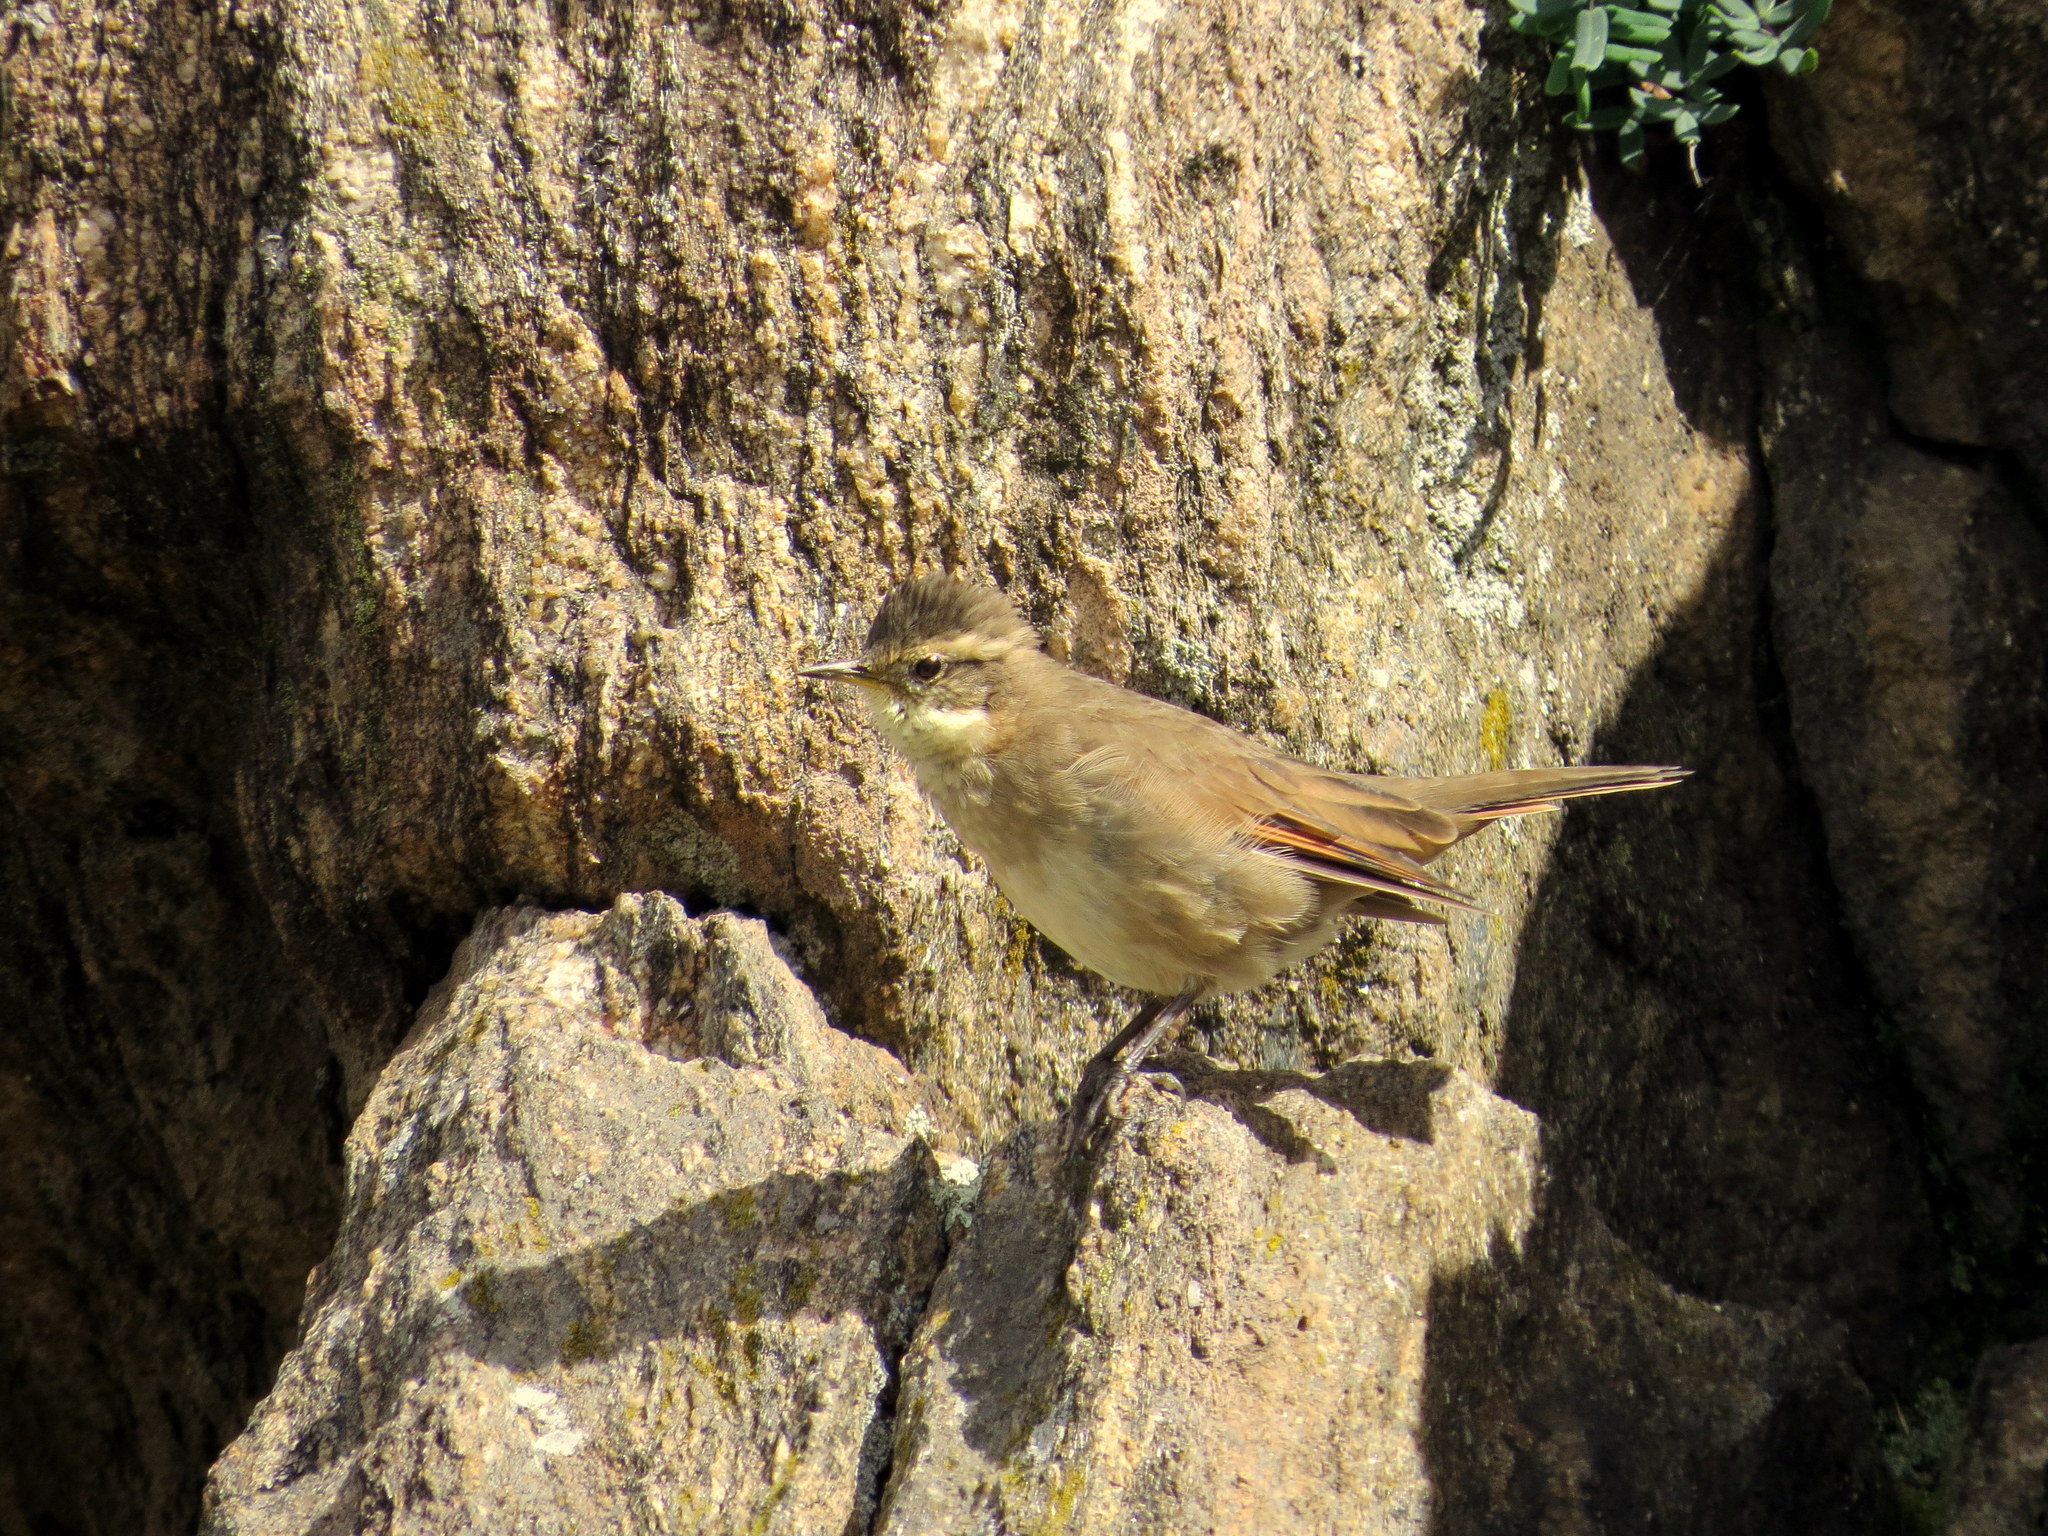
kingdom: Animalia
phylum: Chordata
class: Aves
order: Passeriformes
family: Furnariidae
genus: Cinclodes
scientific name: Cinclodes comechingonus
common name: Cordoba cinclodes
